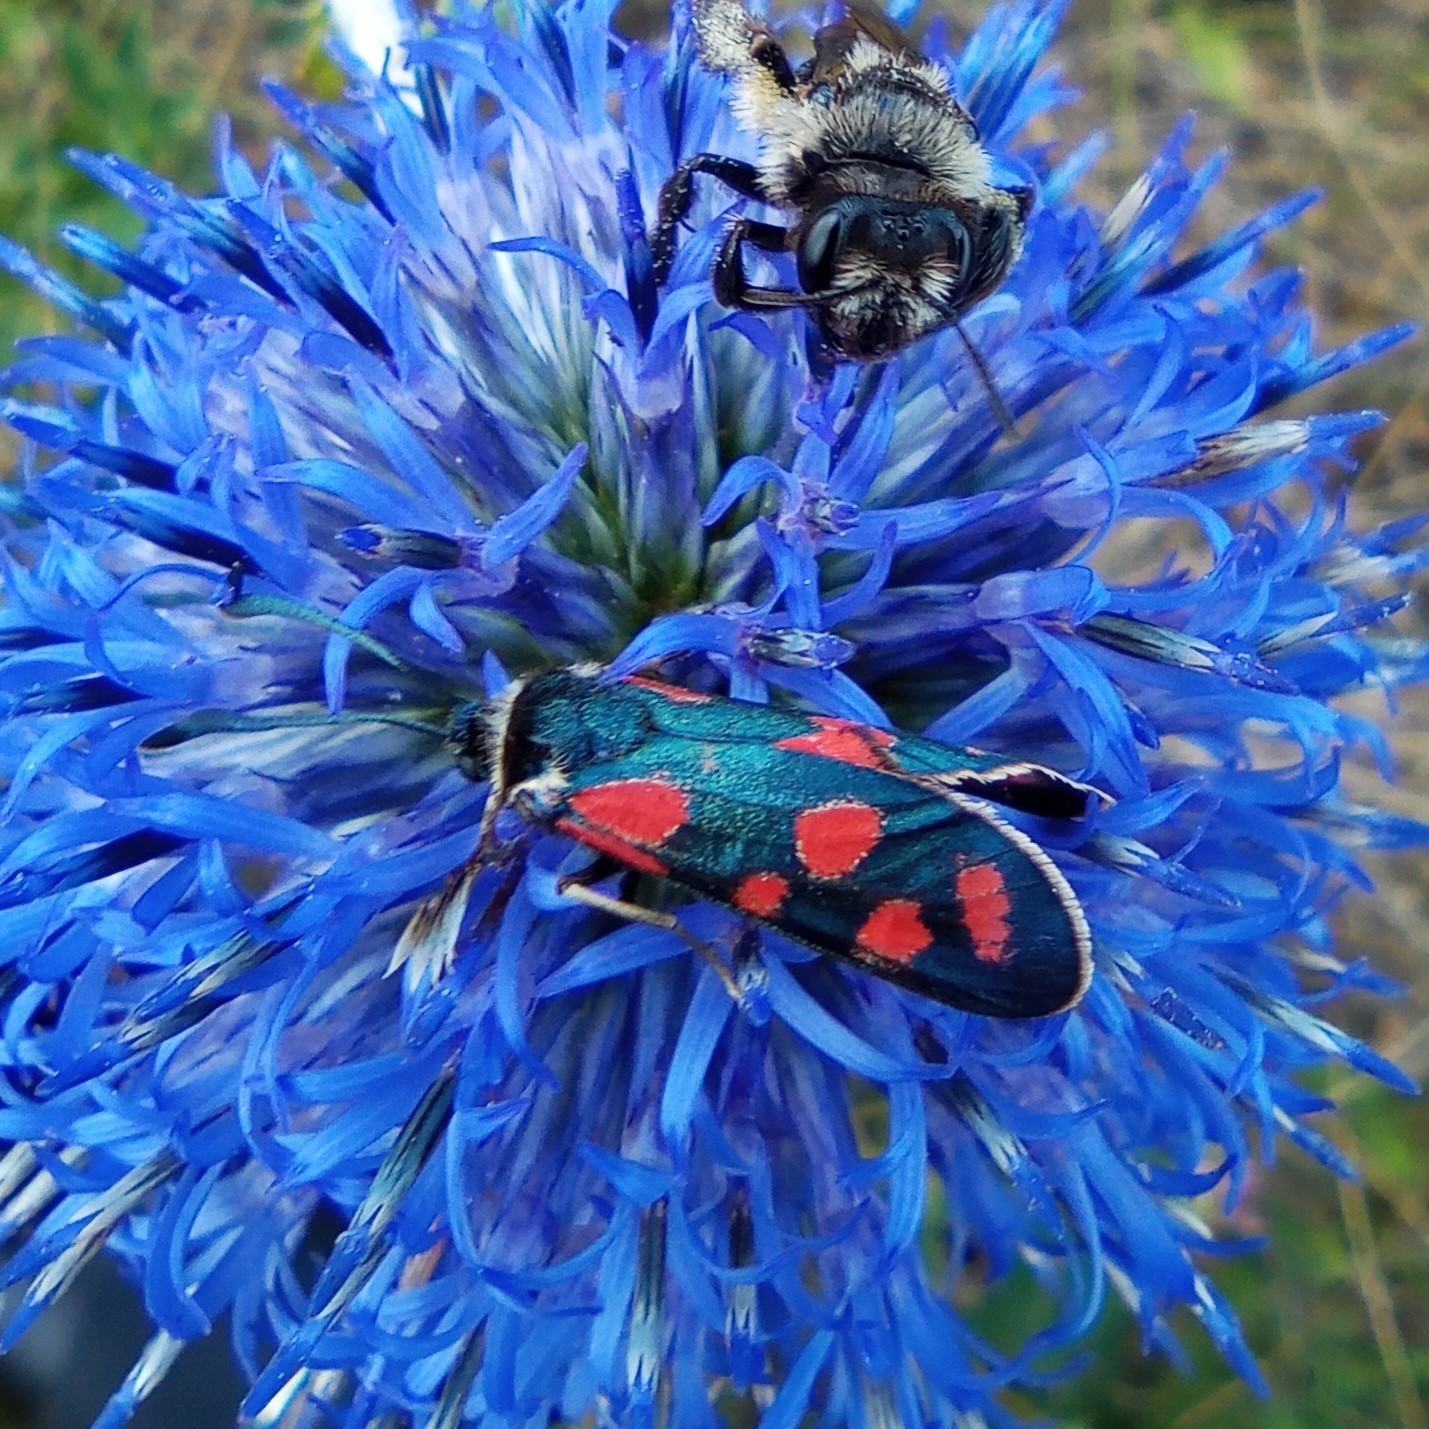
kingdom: Animalia
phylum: Arthropoda
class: Insecta
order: Lepidoptera
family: Zygaenidae
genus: Zygaena
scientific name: Zygaena carniolica
